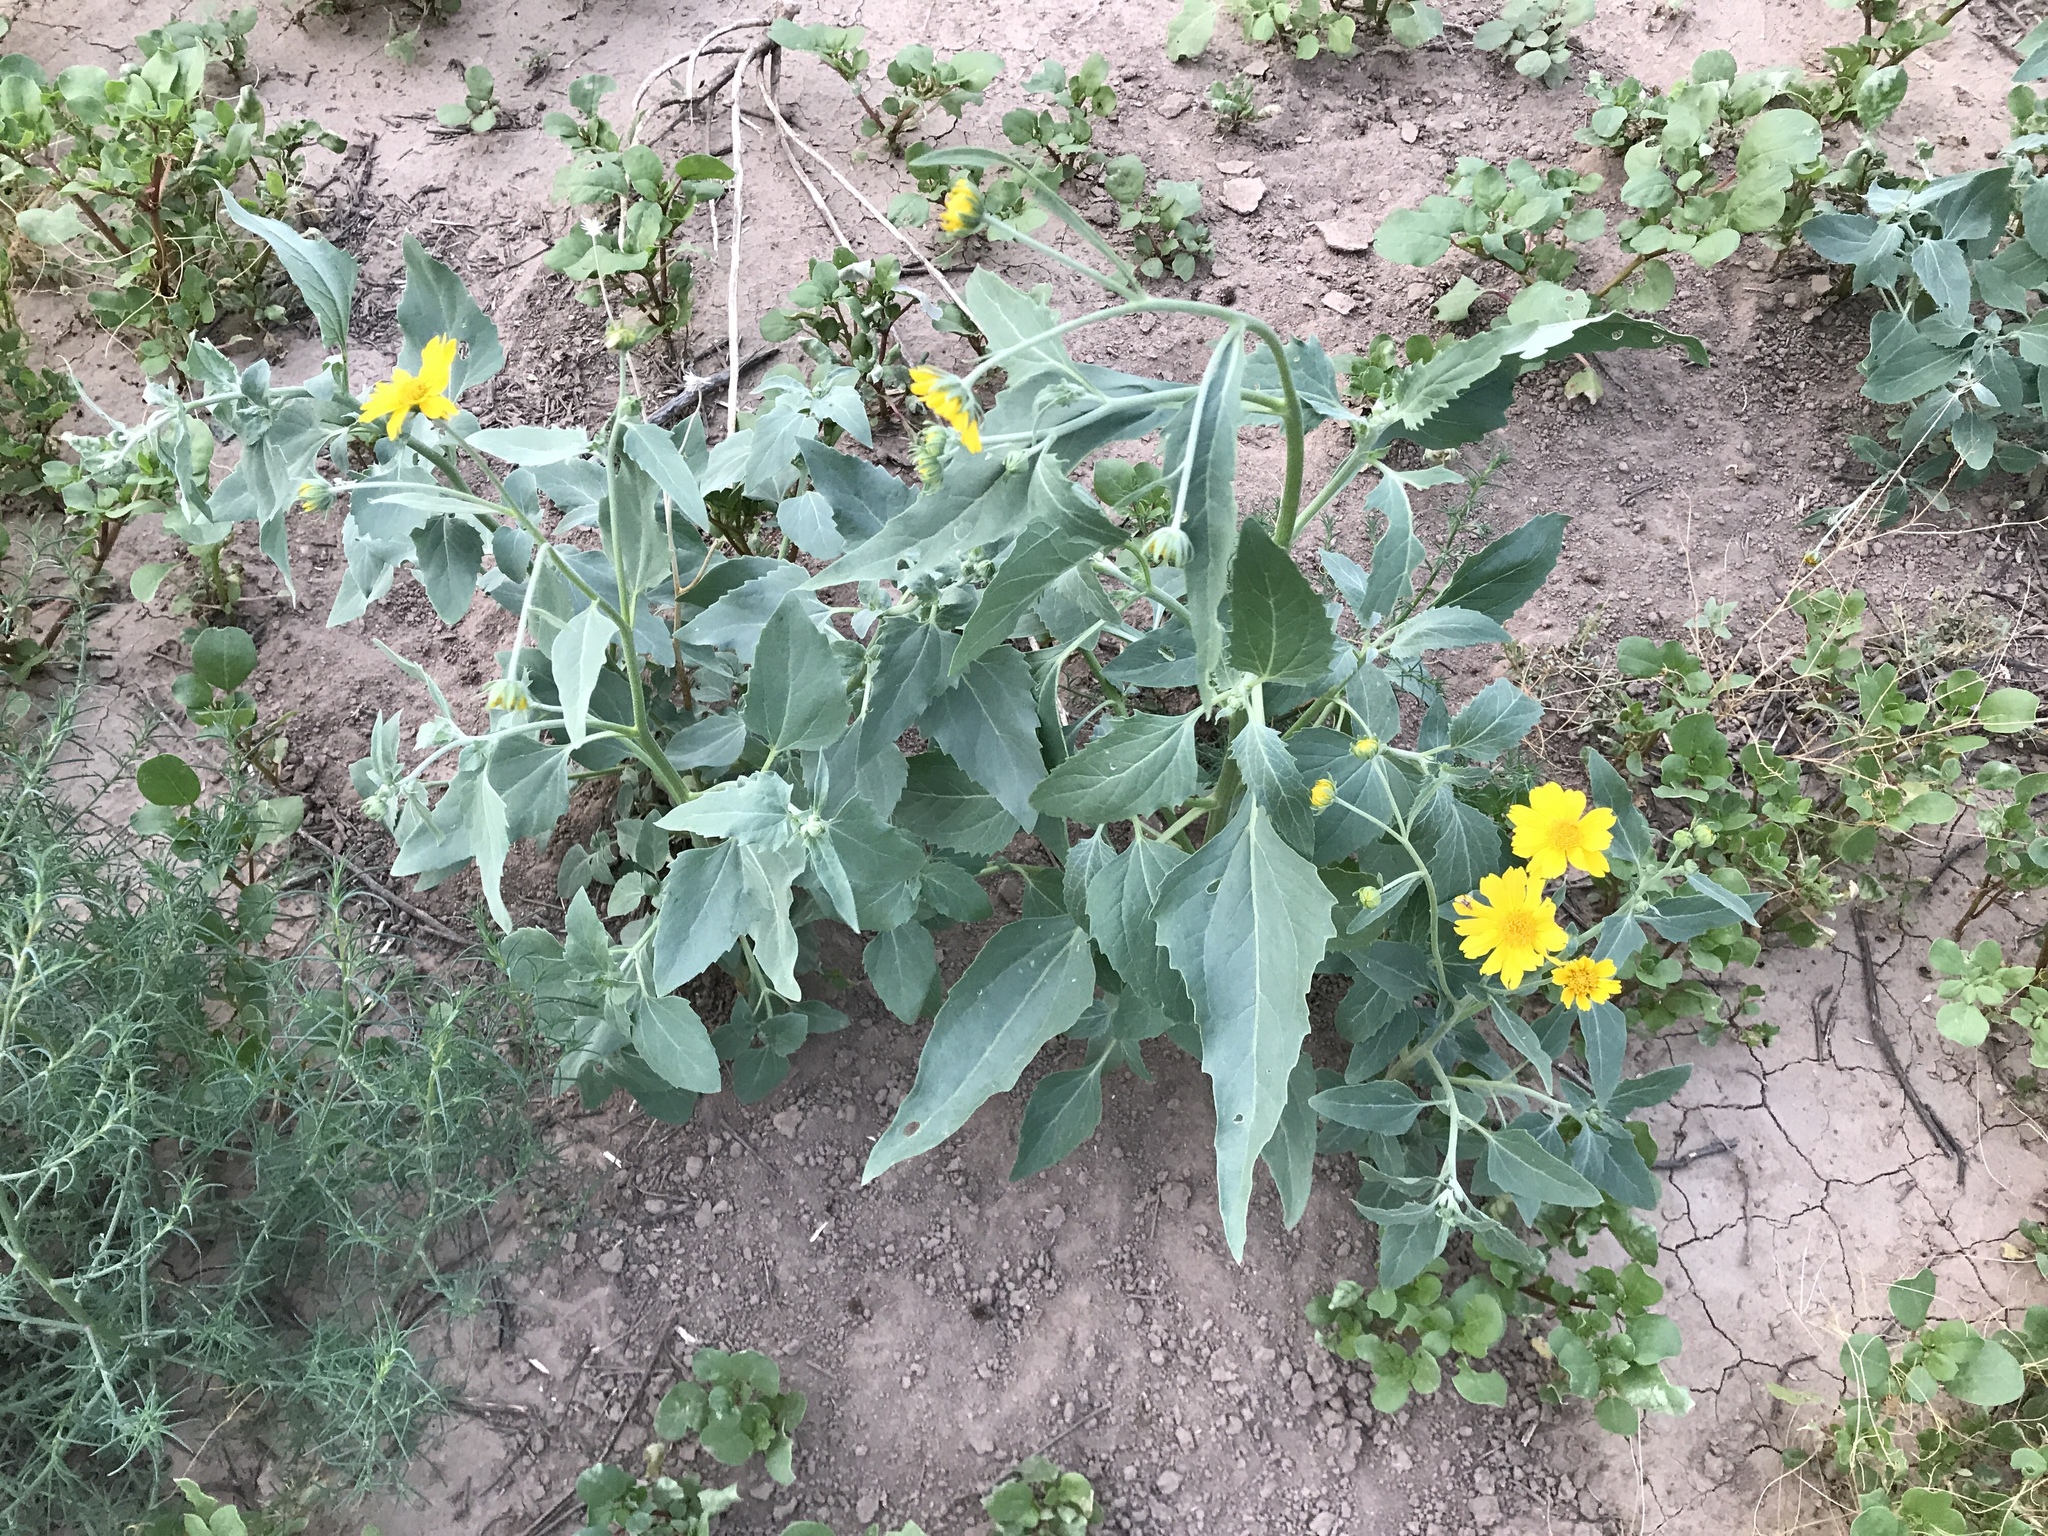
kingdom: Plantae
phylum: Tracheophyta
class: Magnoliopsida
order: Asterales
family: Asteraceae
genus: Verbesina
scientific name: Verbesina encelioides
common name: Golden crownbeard
